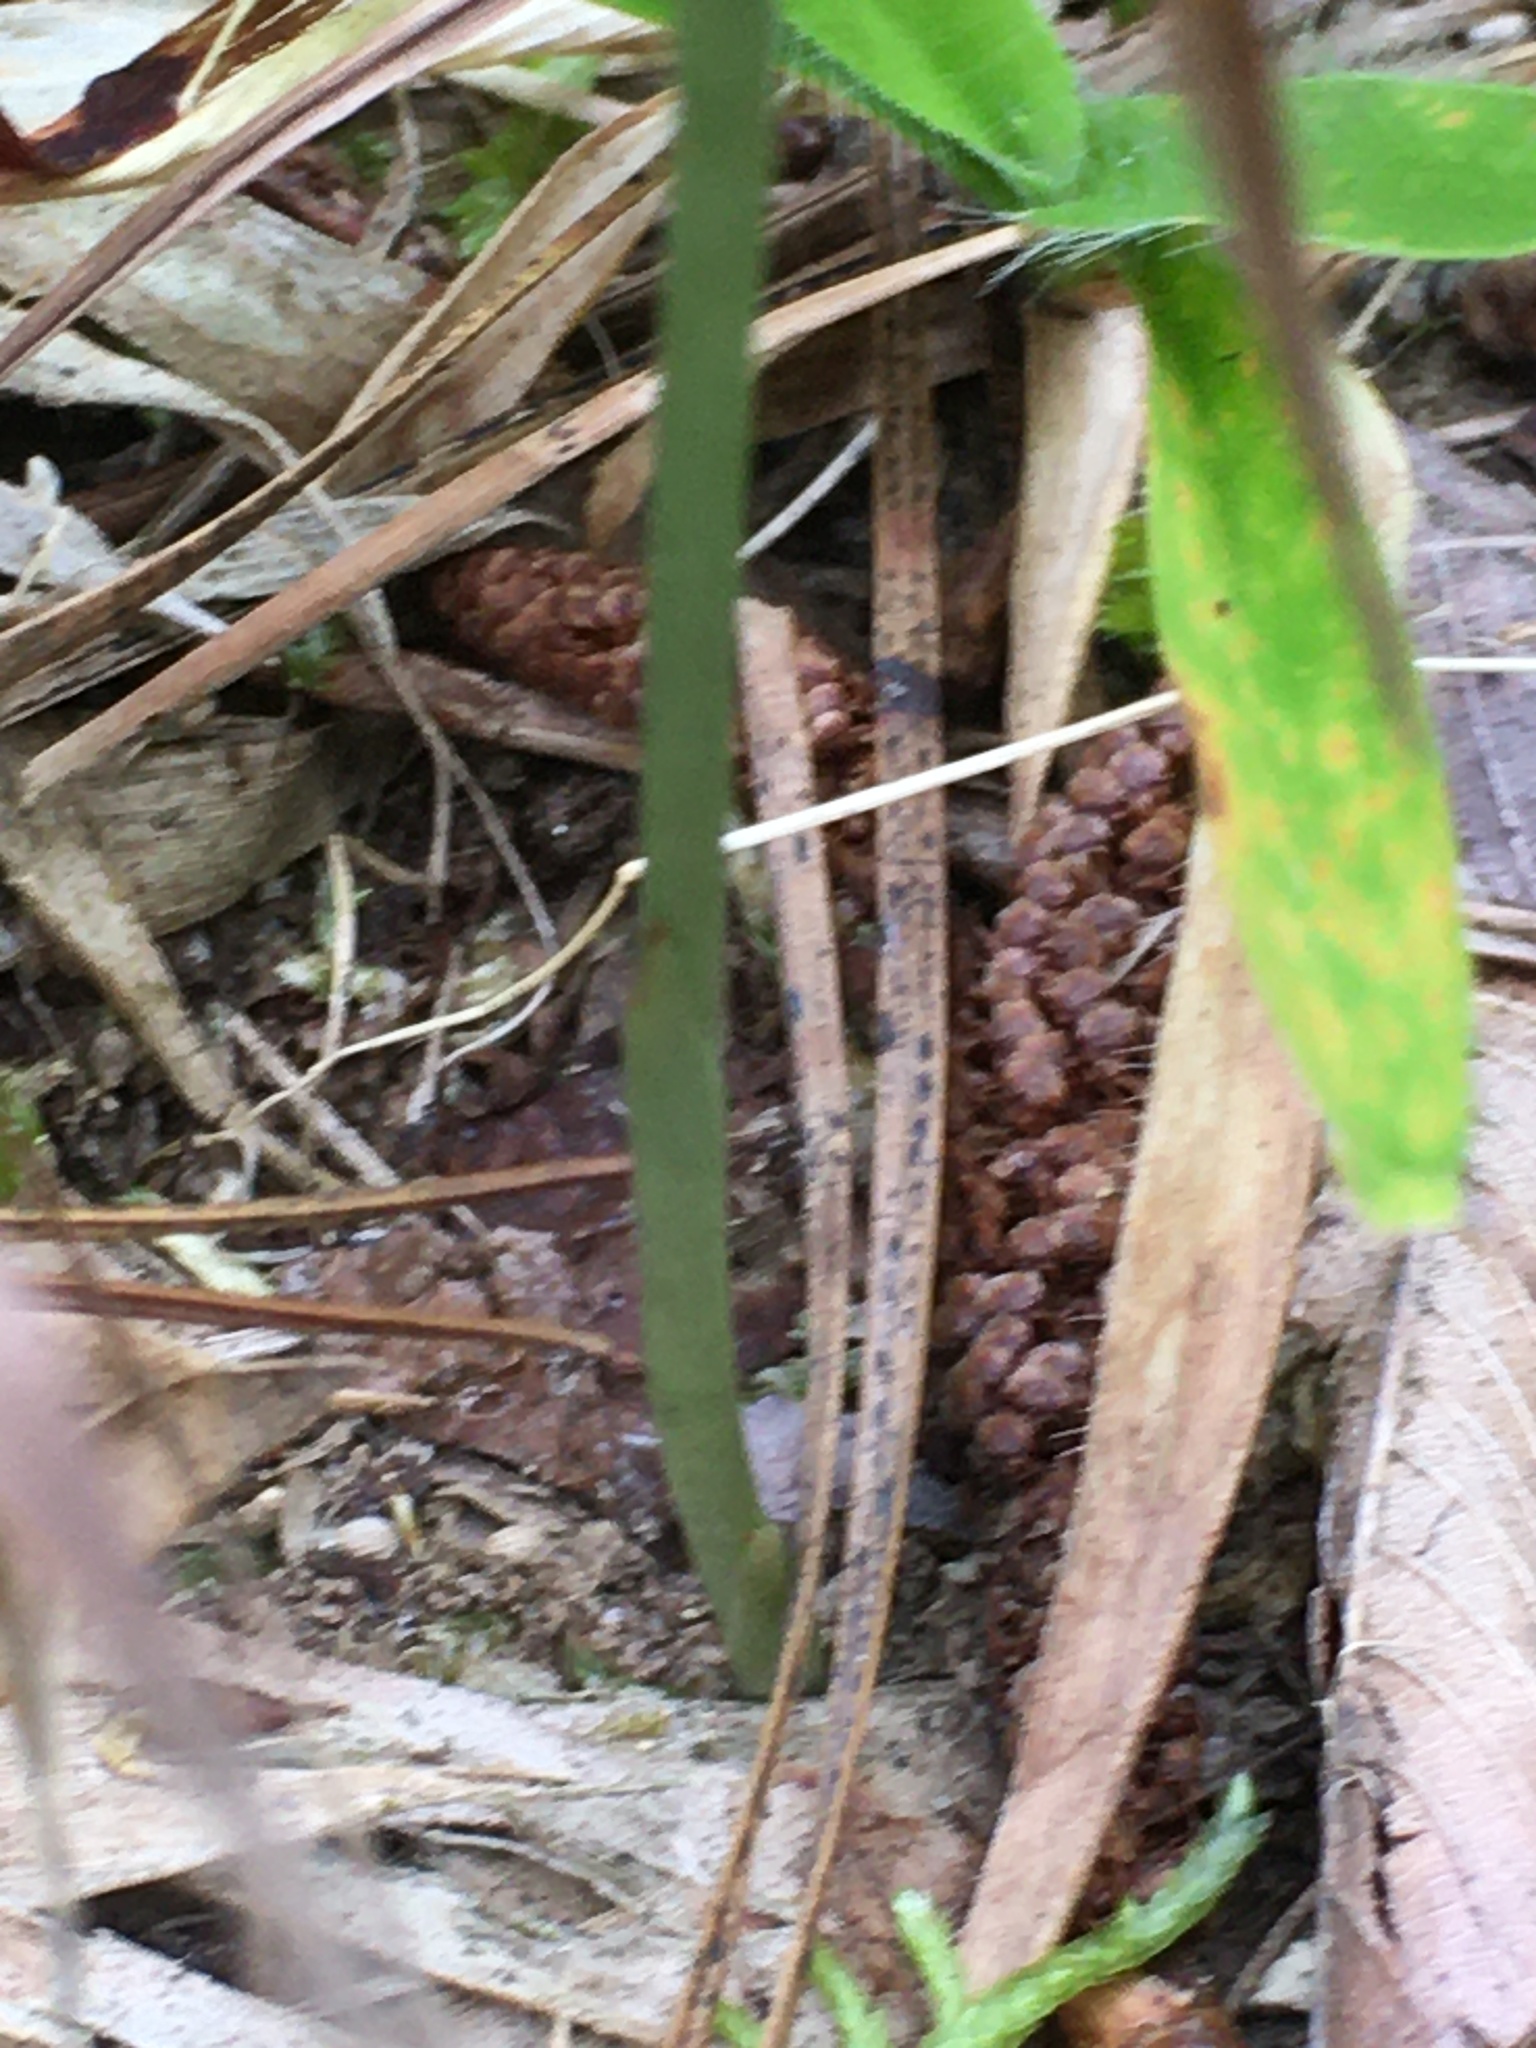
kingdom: Plantae
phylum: Tracheophyta
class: Liliopsida
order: Asparagales
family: Orchidaceae
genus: Spiranthes
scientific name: Spiranthes tuberosa
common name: Little ladies'-tresses
